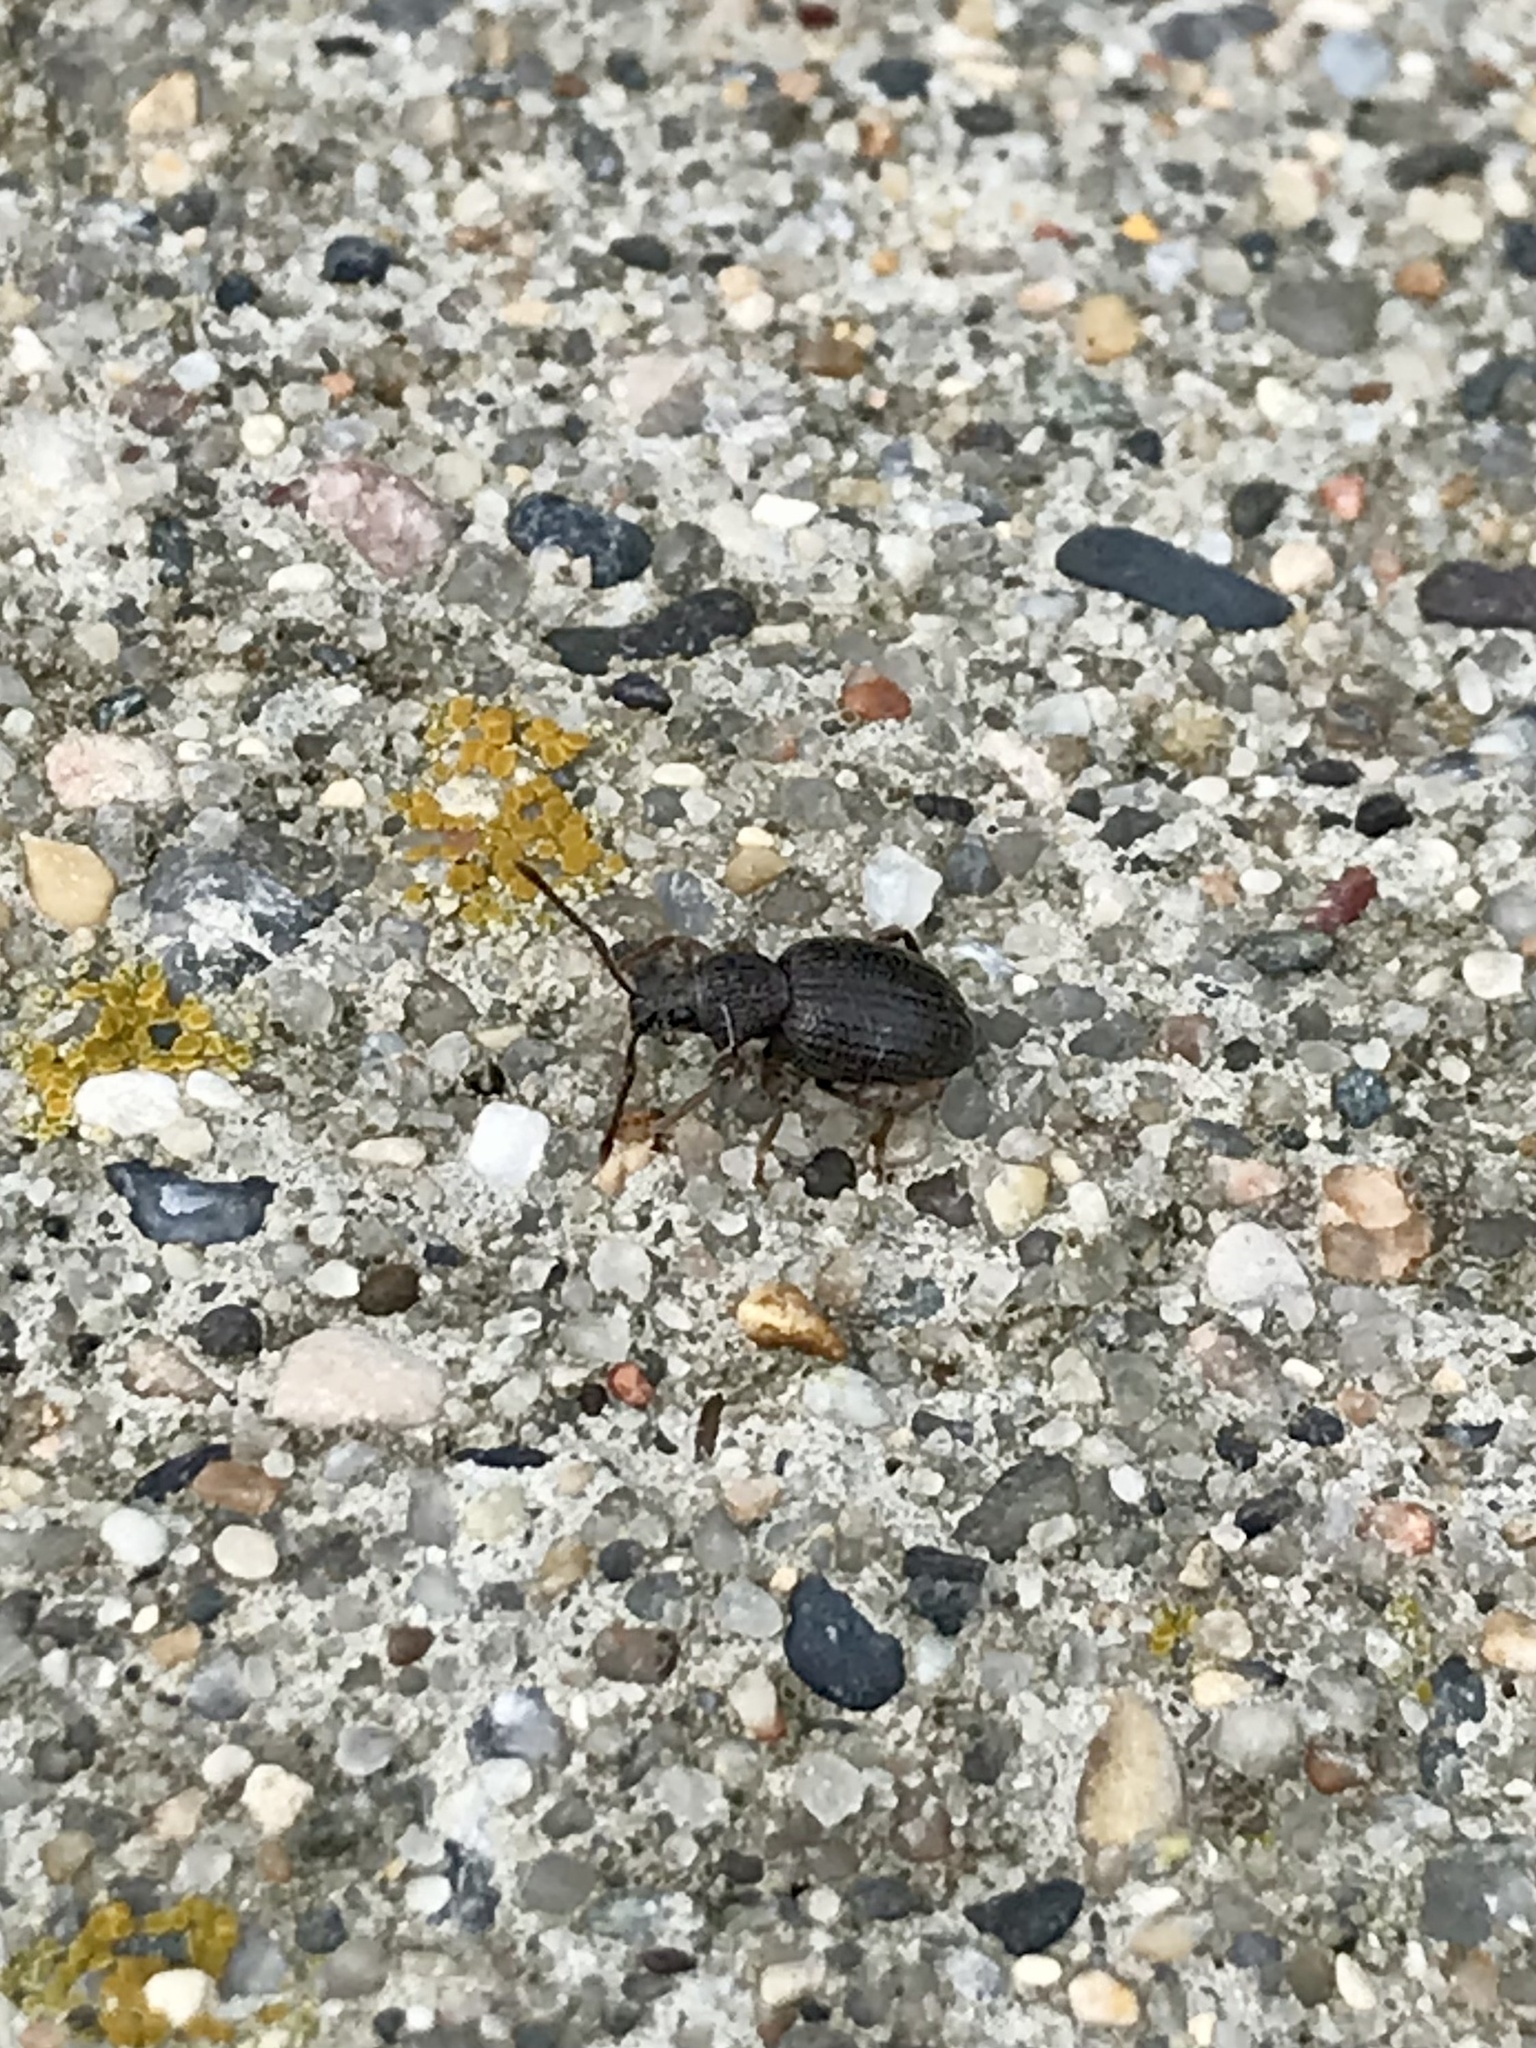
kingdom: Animalia
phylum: Arthropoda
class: Insecta
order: Coleoptera
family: Curculionidae
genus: Otiorhynchus
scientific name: Otiorhynchus ovatus
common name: Strawberry root weevil
